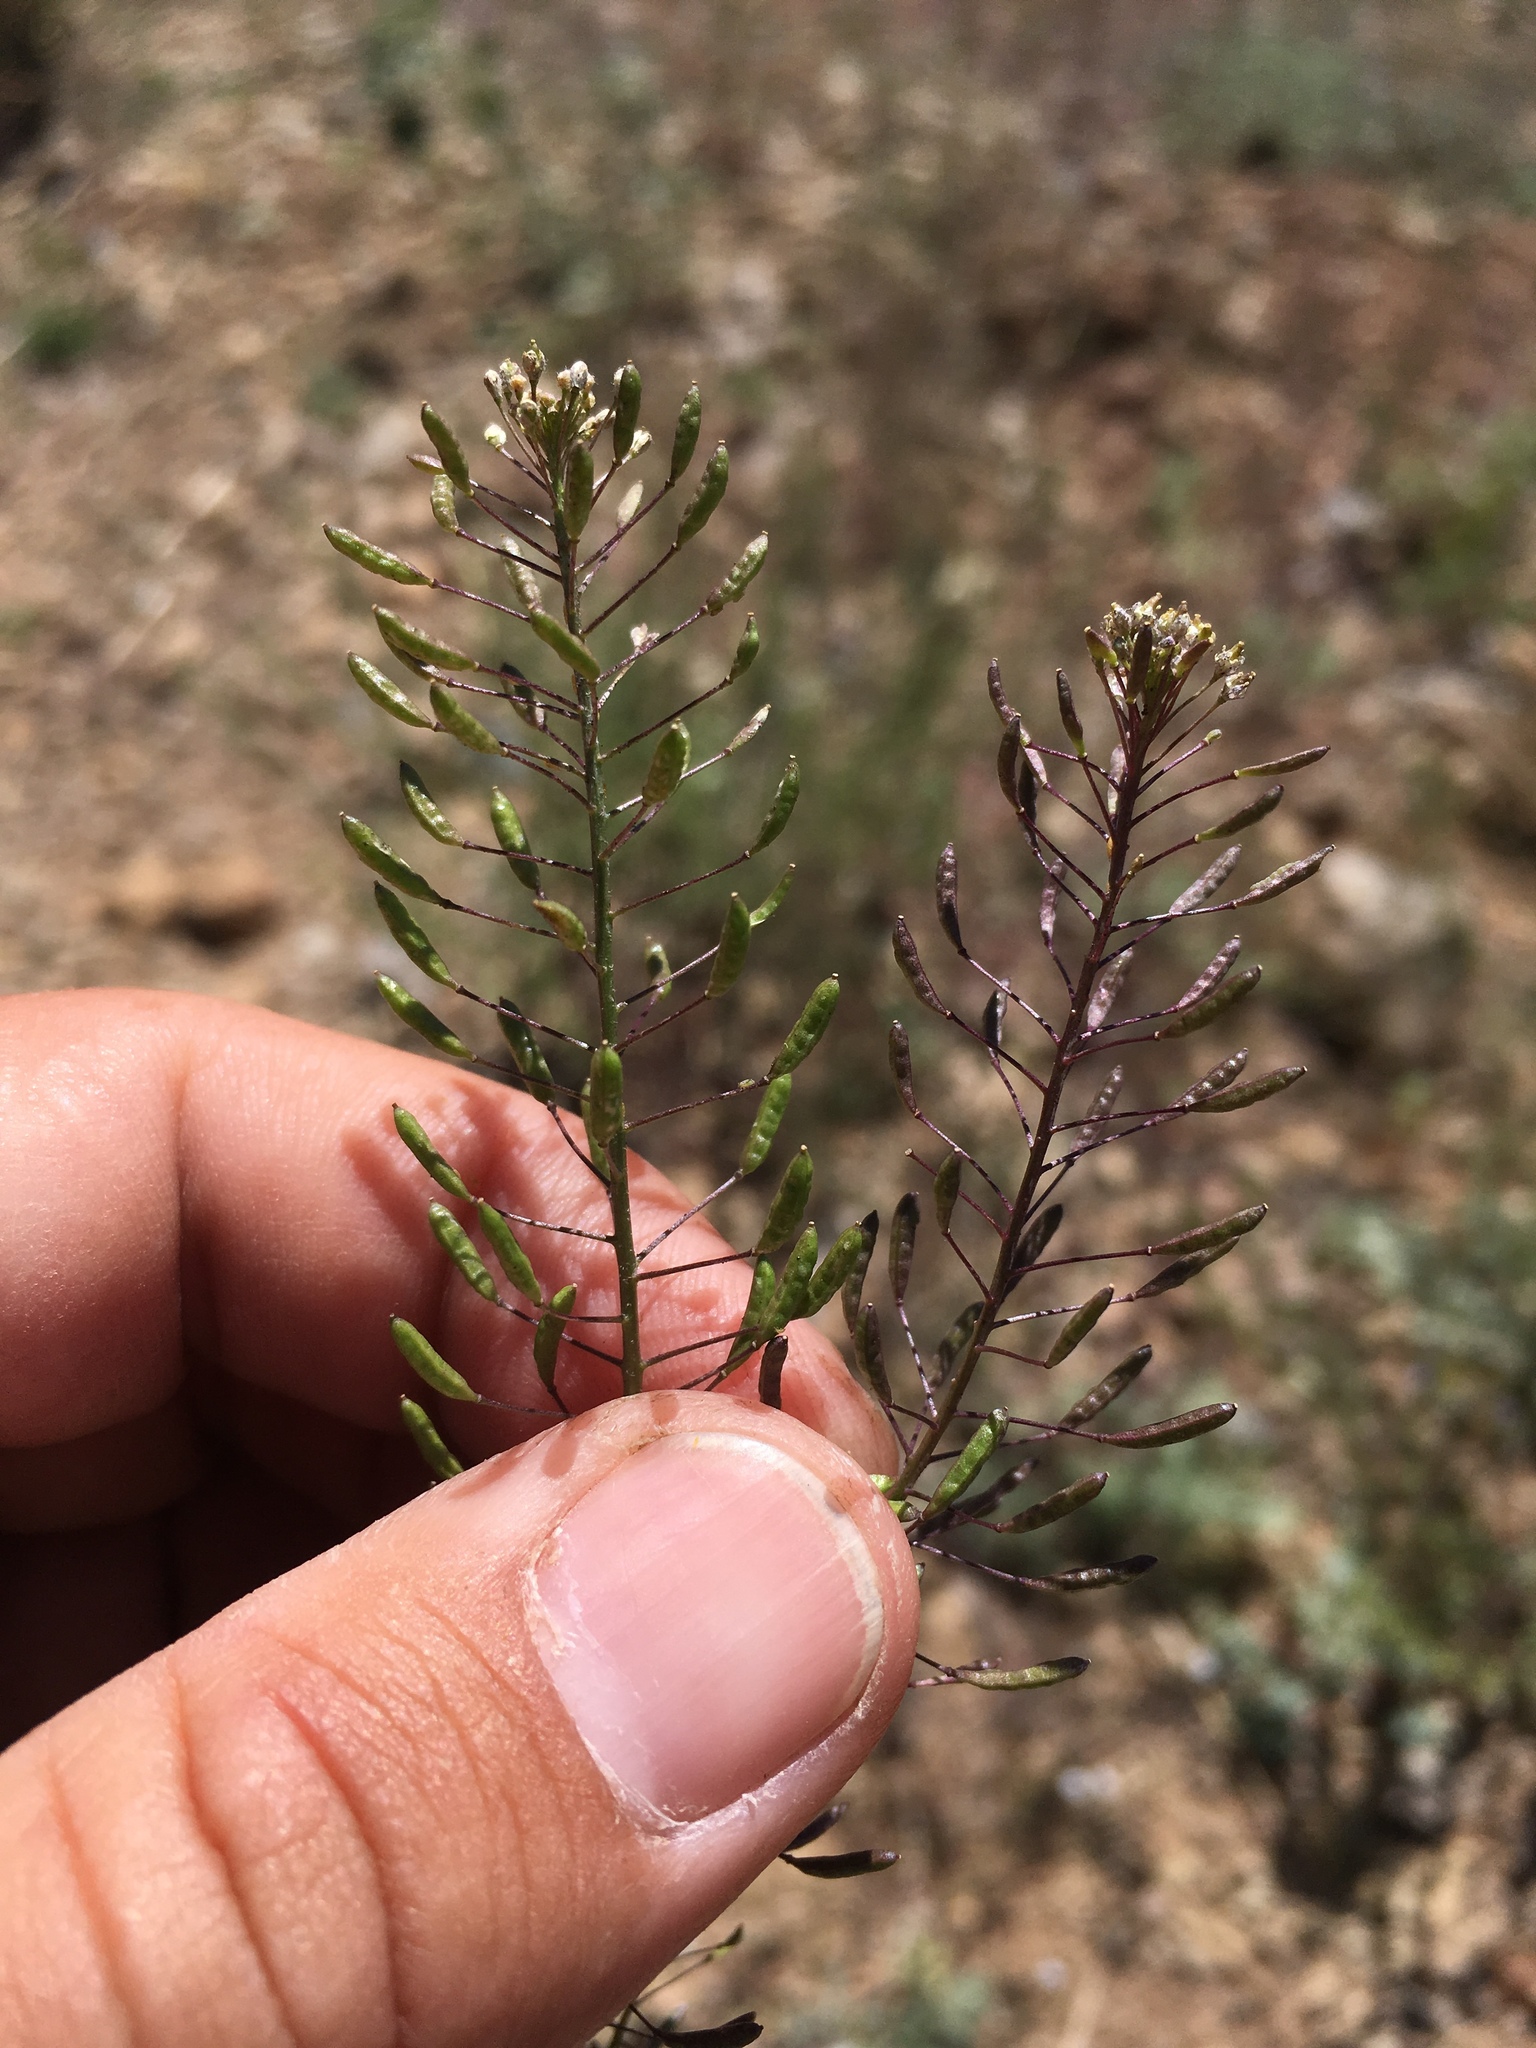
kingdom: Plantae
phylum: Tracheophyta
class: Magnoliopsida
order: Brassicales
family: Brassicaceae
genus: Descurainia
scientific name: Descurainia pinnata
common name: Western tansy mustard
